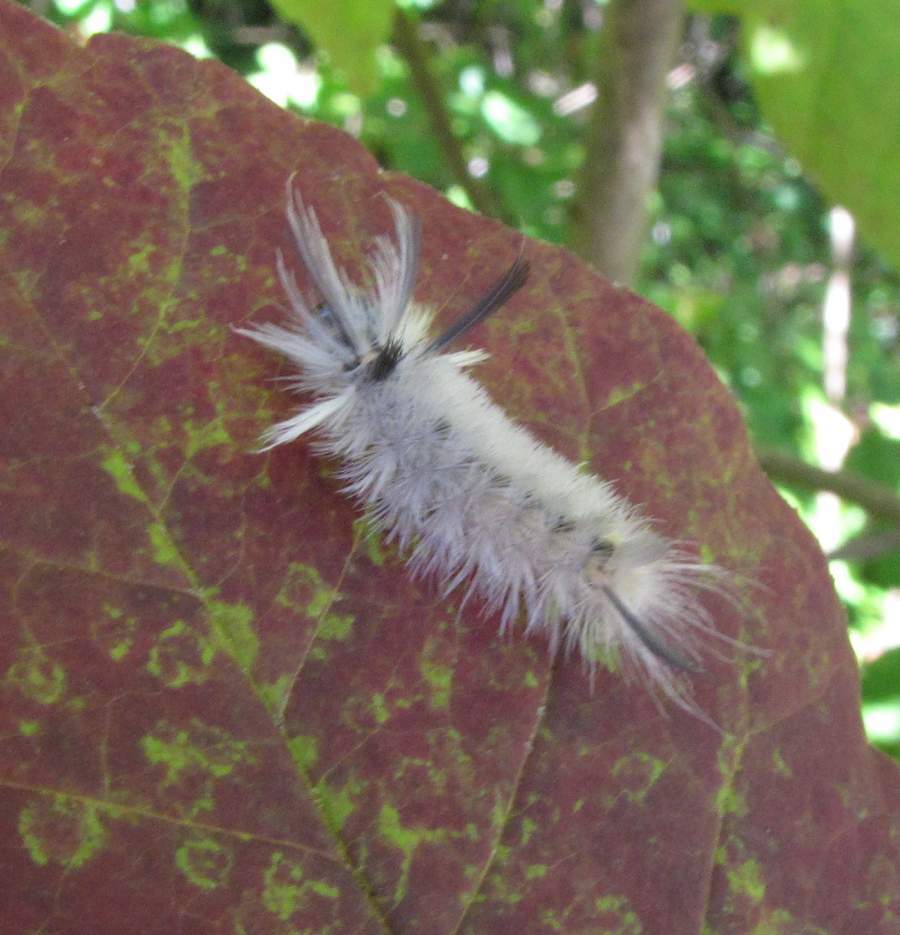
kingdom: Animalia
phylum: Arthropoda
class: Insecta
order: Lepidoptera
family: Erebidae
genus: Halysidota
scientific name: Halysidota tessellaris
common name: Banded tussock moth
